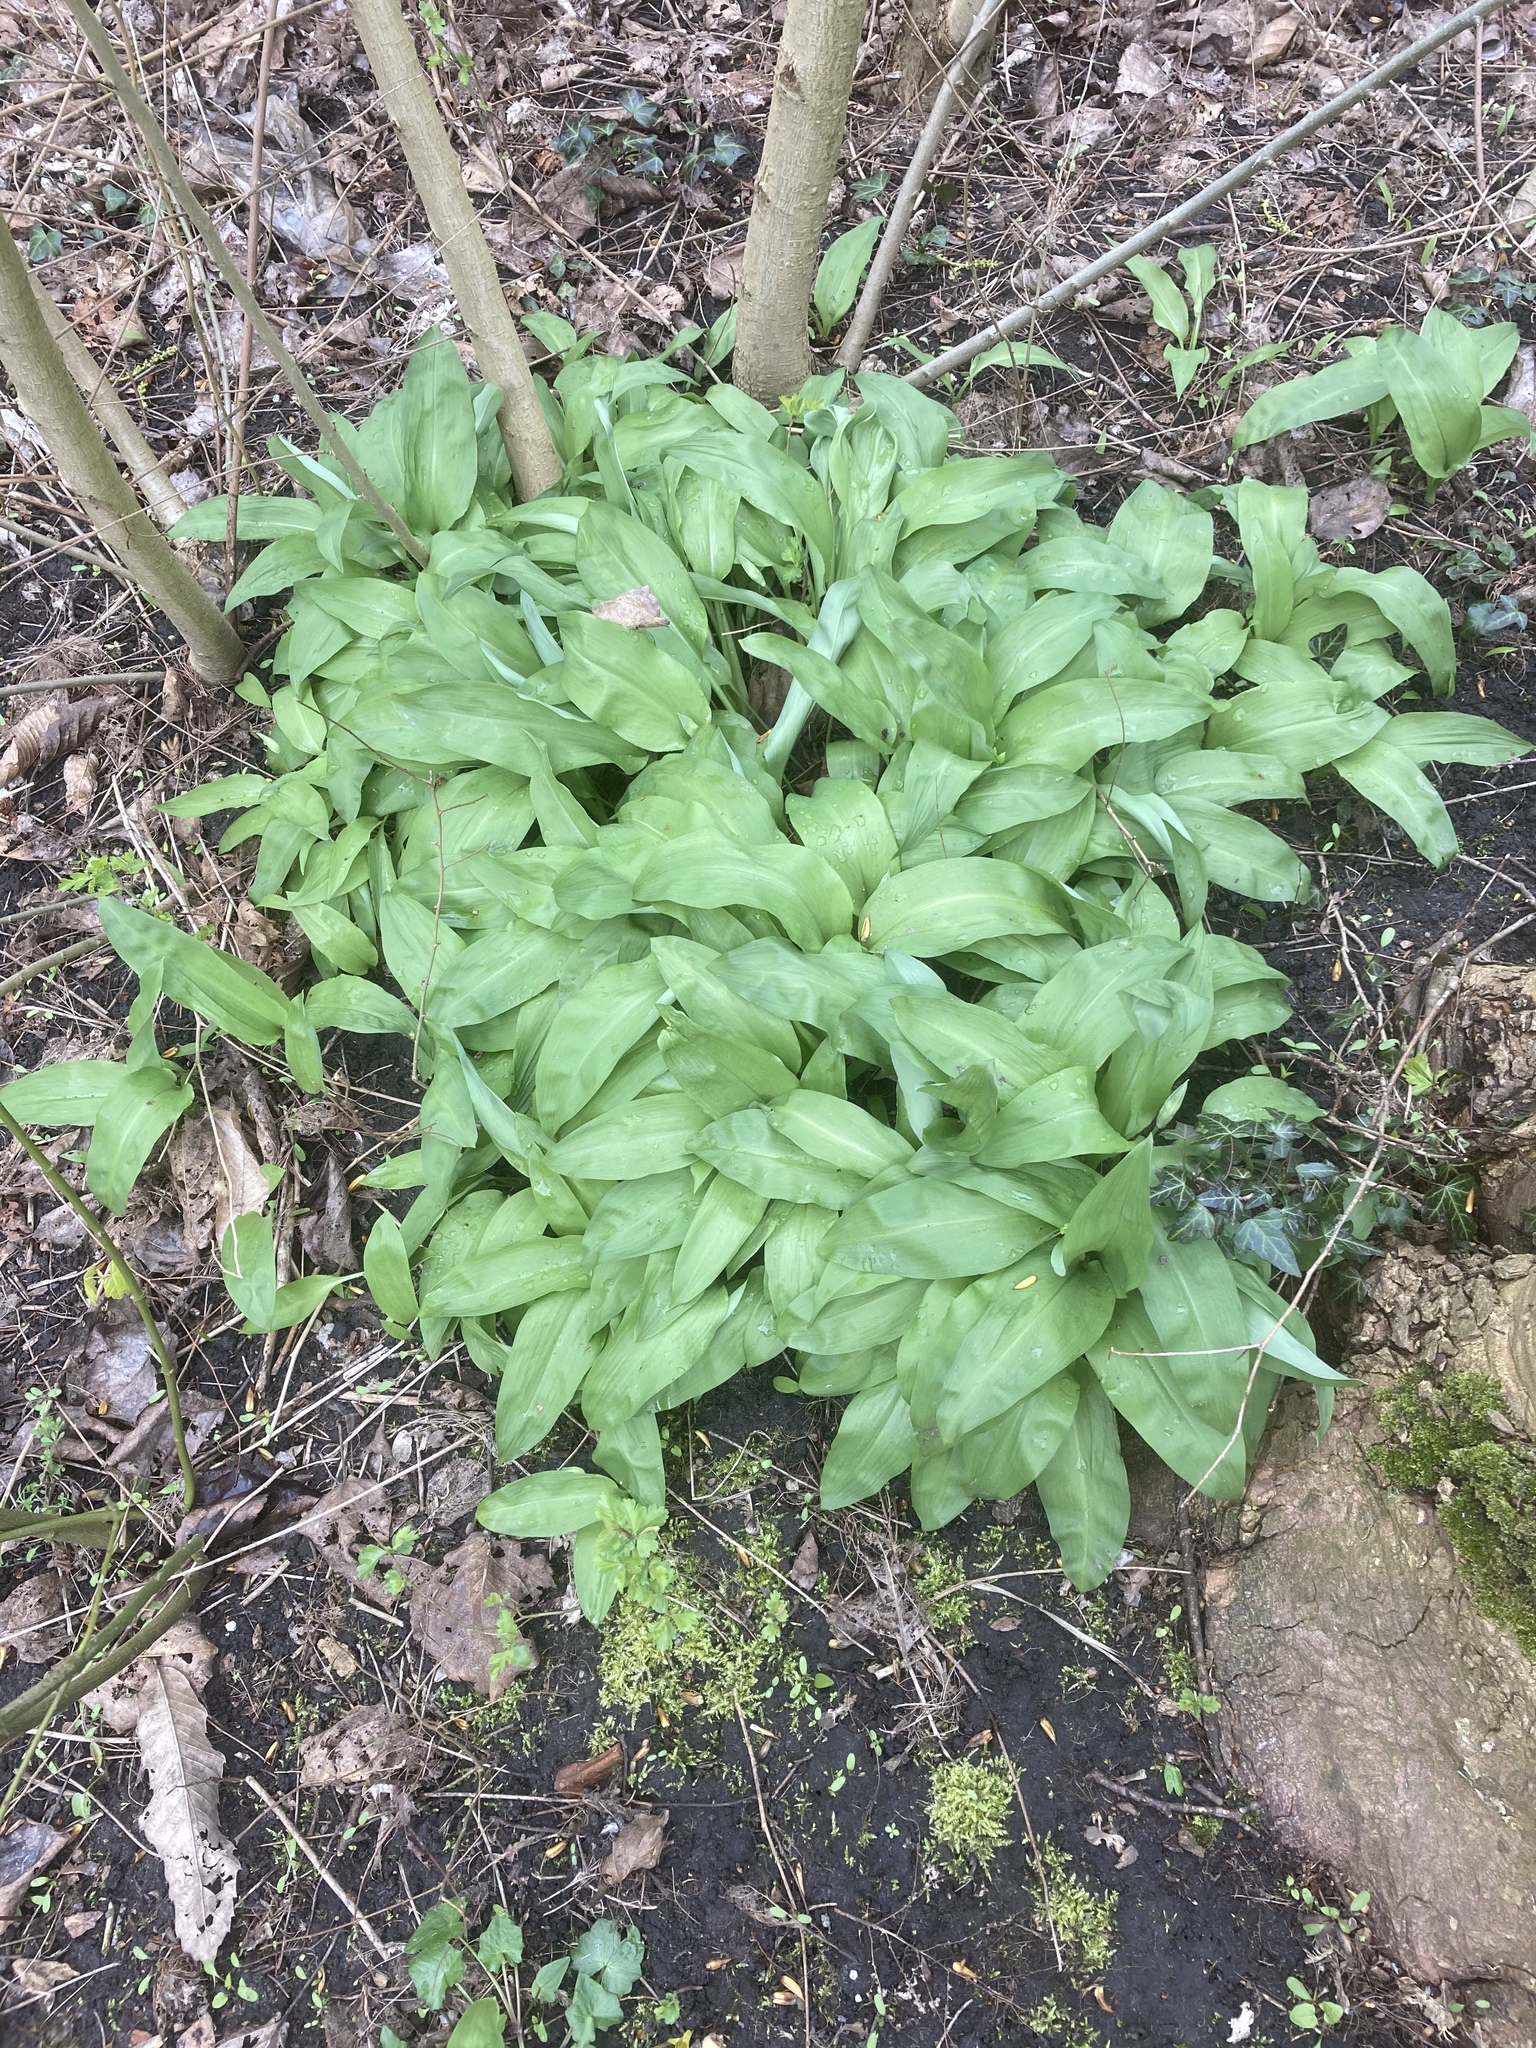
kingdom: Plantae
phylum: Tracheophyta
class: Liliopsida
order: Asparagales
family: Amaryllidaceae
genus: Allium
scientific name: Allium ursinum
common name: Ramsons
